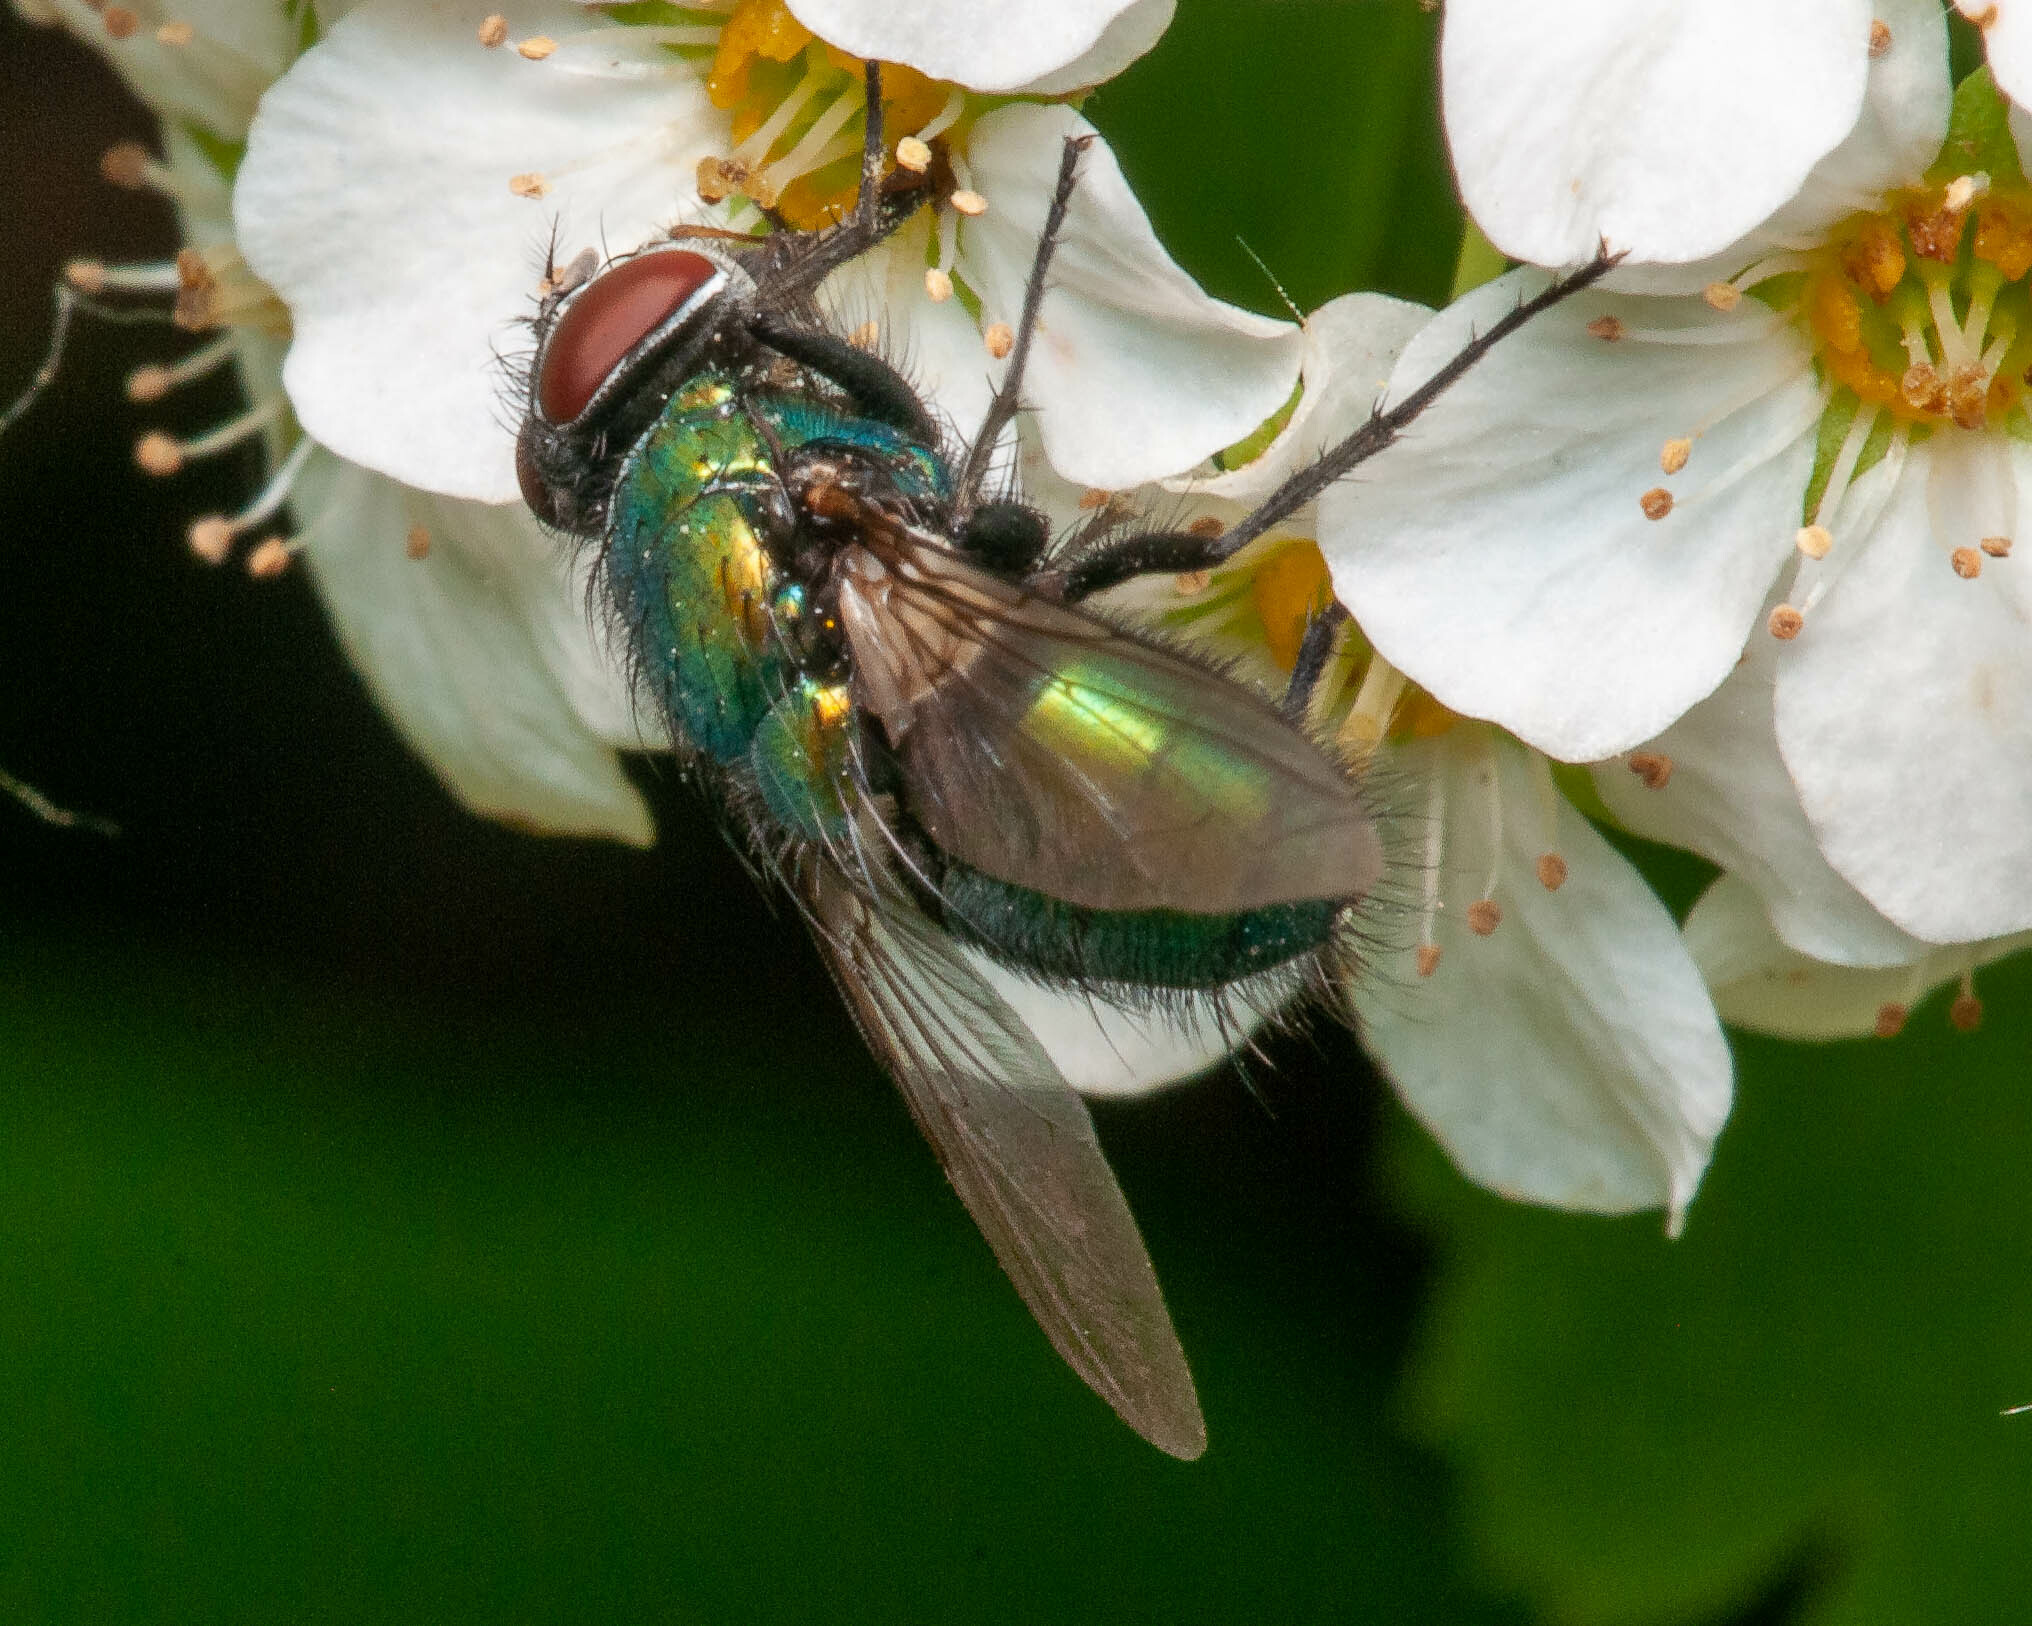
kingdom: Animalia
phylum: Arthropoda
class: Insecta
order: Diptera
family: Calliphoridae
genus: Lucilia
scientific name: Lucilia sericata
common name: Blow fly
